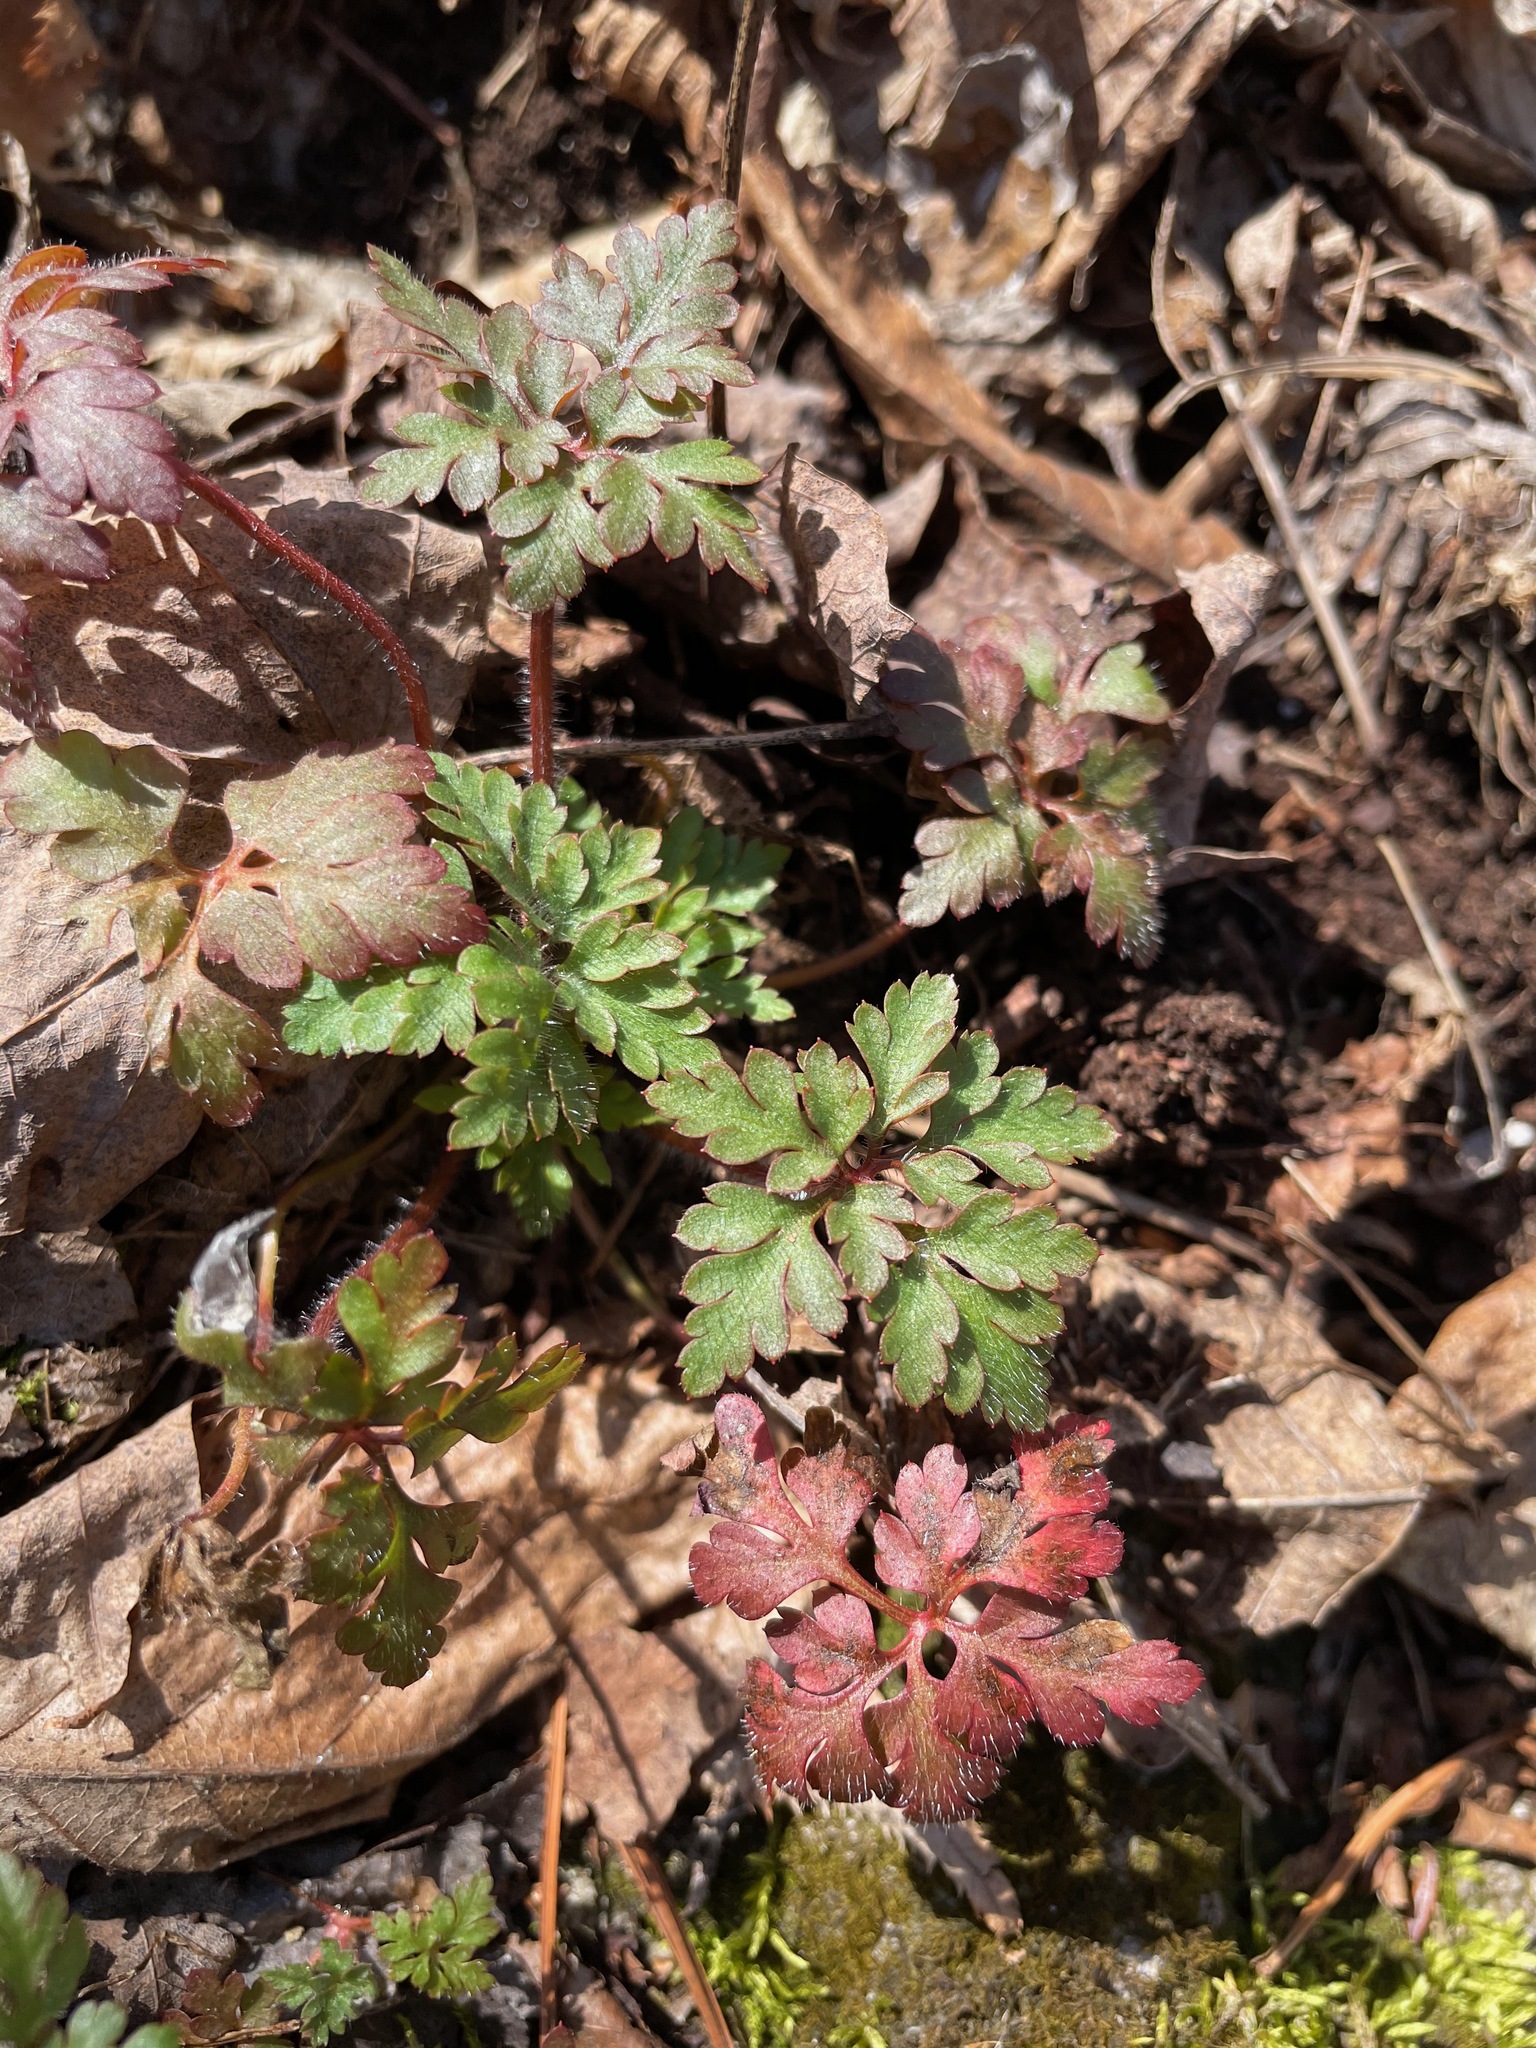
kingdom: Plantae
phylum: Tracheophyta
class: Magnoliopsida
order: Geraniales
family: Geraniaceae
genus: Geranium
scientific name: Geranium robertianum
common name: Herb-robert
